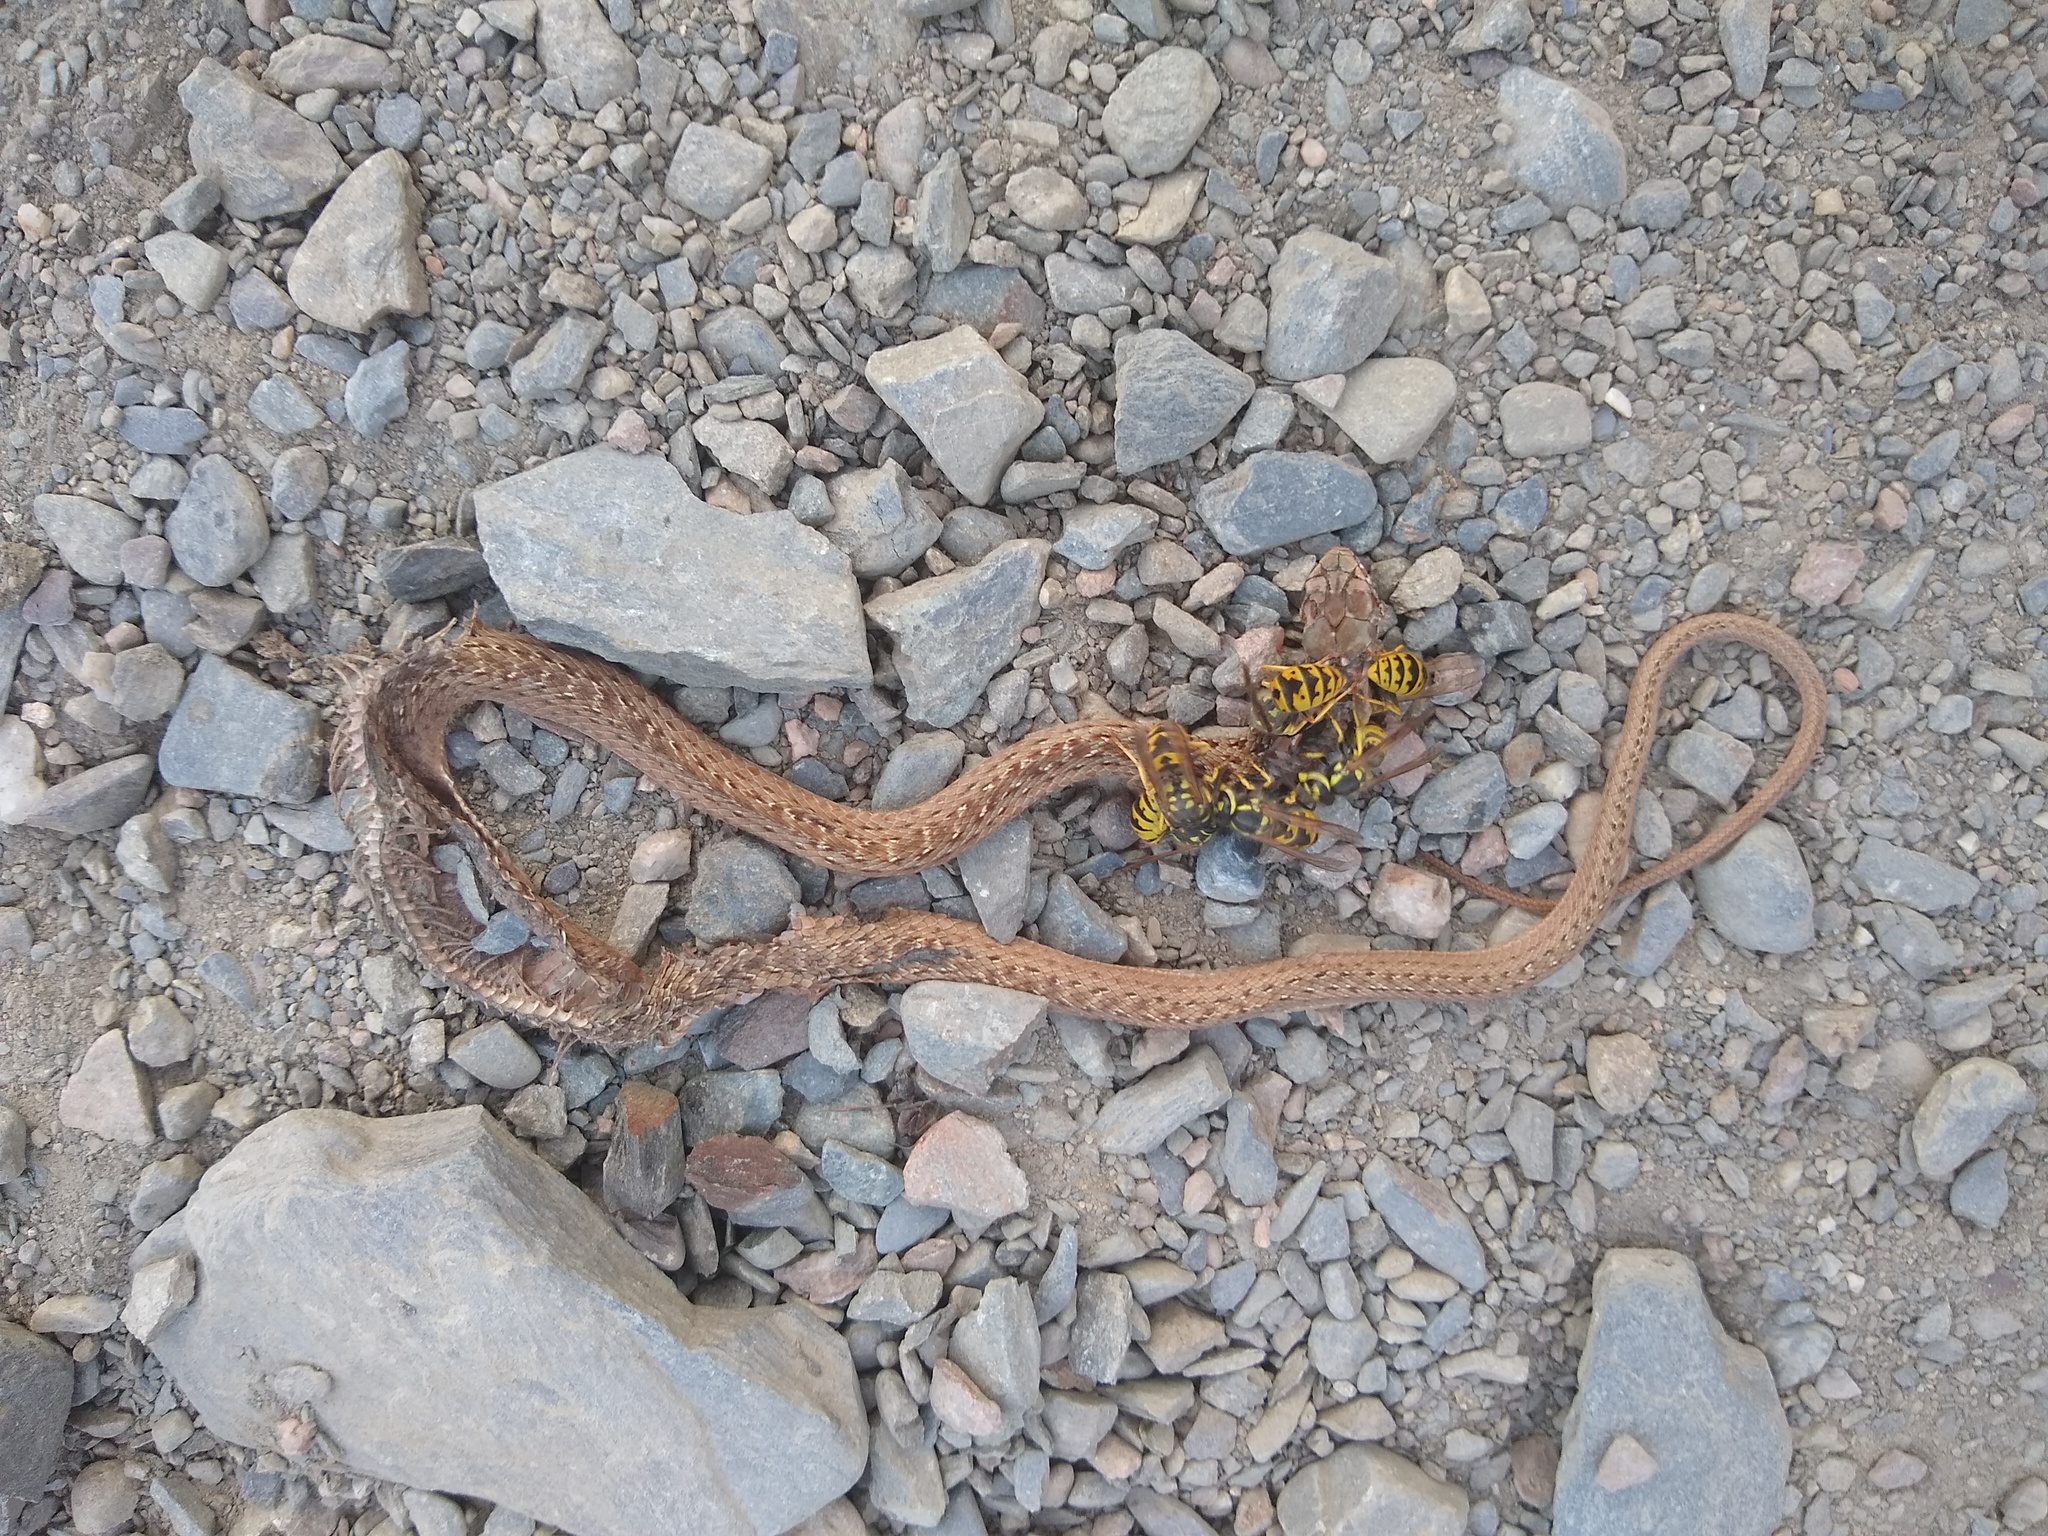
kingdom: Animalia
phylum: Chordata
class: Squamata
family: Psammophiidae
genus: Malpolon
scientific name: Malpolon monspessulanus
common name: Montpellier snake
